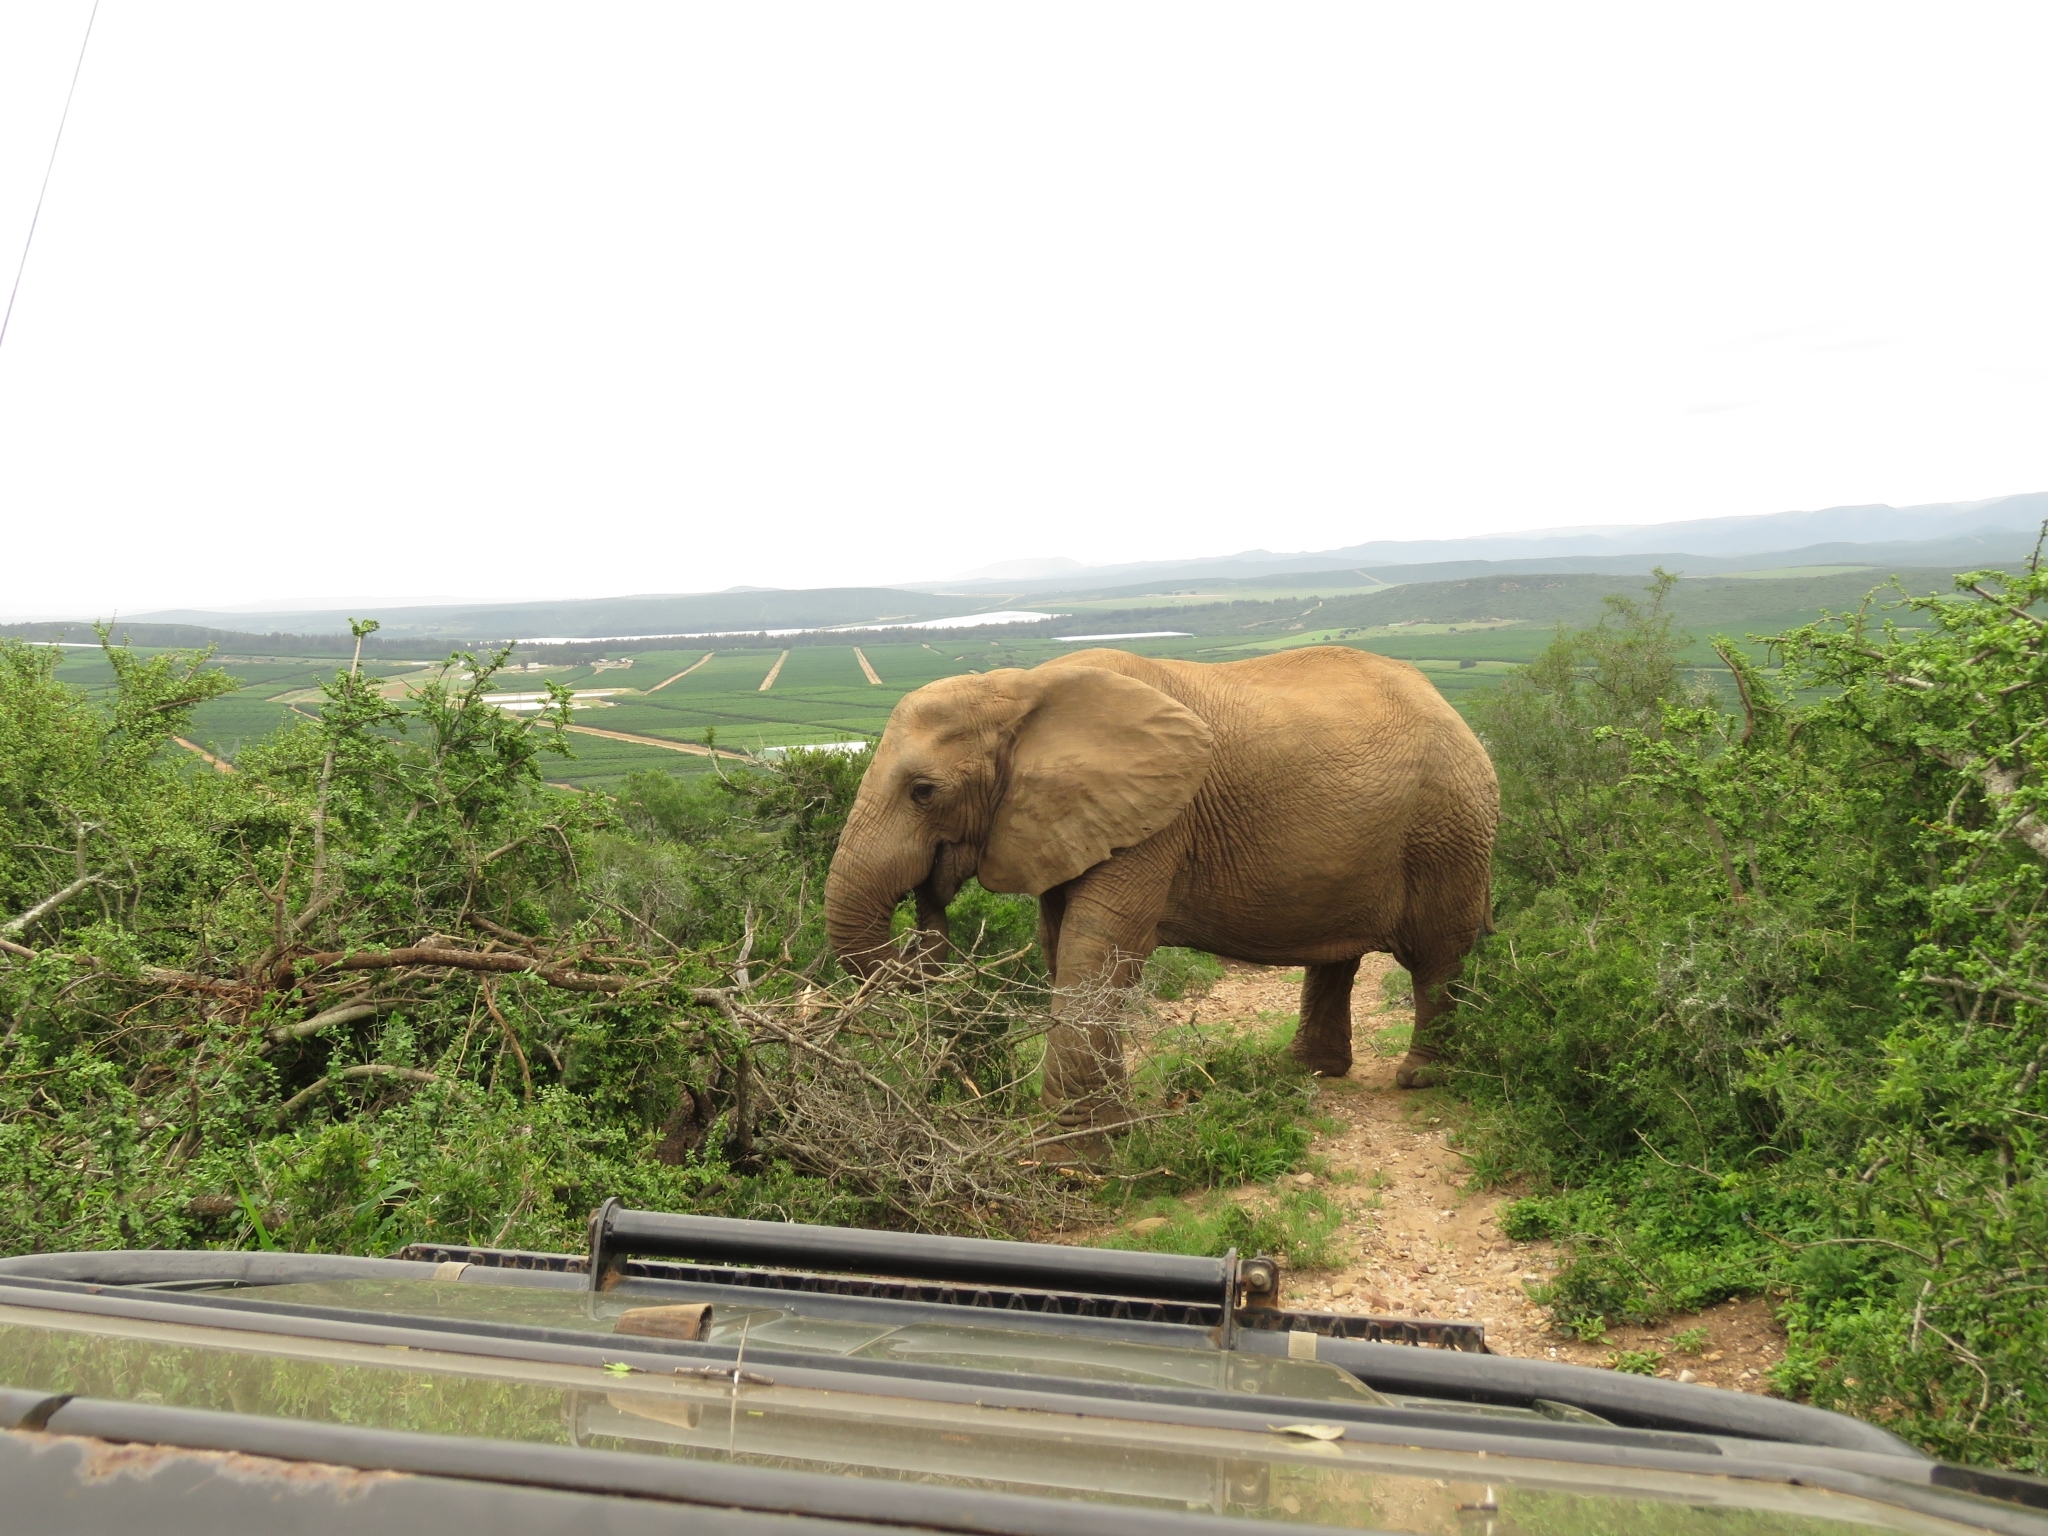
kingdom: Animalia
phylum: Chordata
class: Mammalia
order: Proboscidea
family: Elephantidae
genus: Loxodonta
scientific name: Loxodonta africana
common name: African elephant
